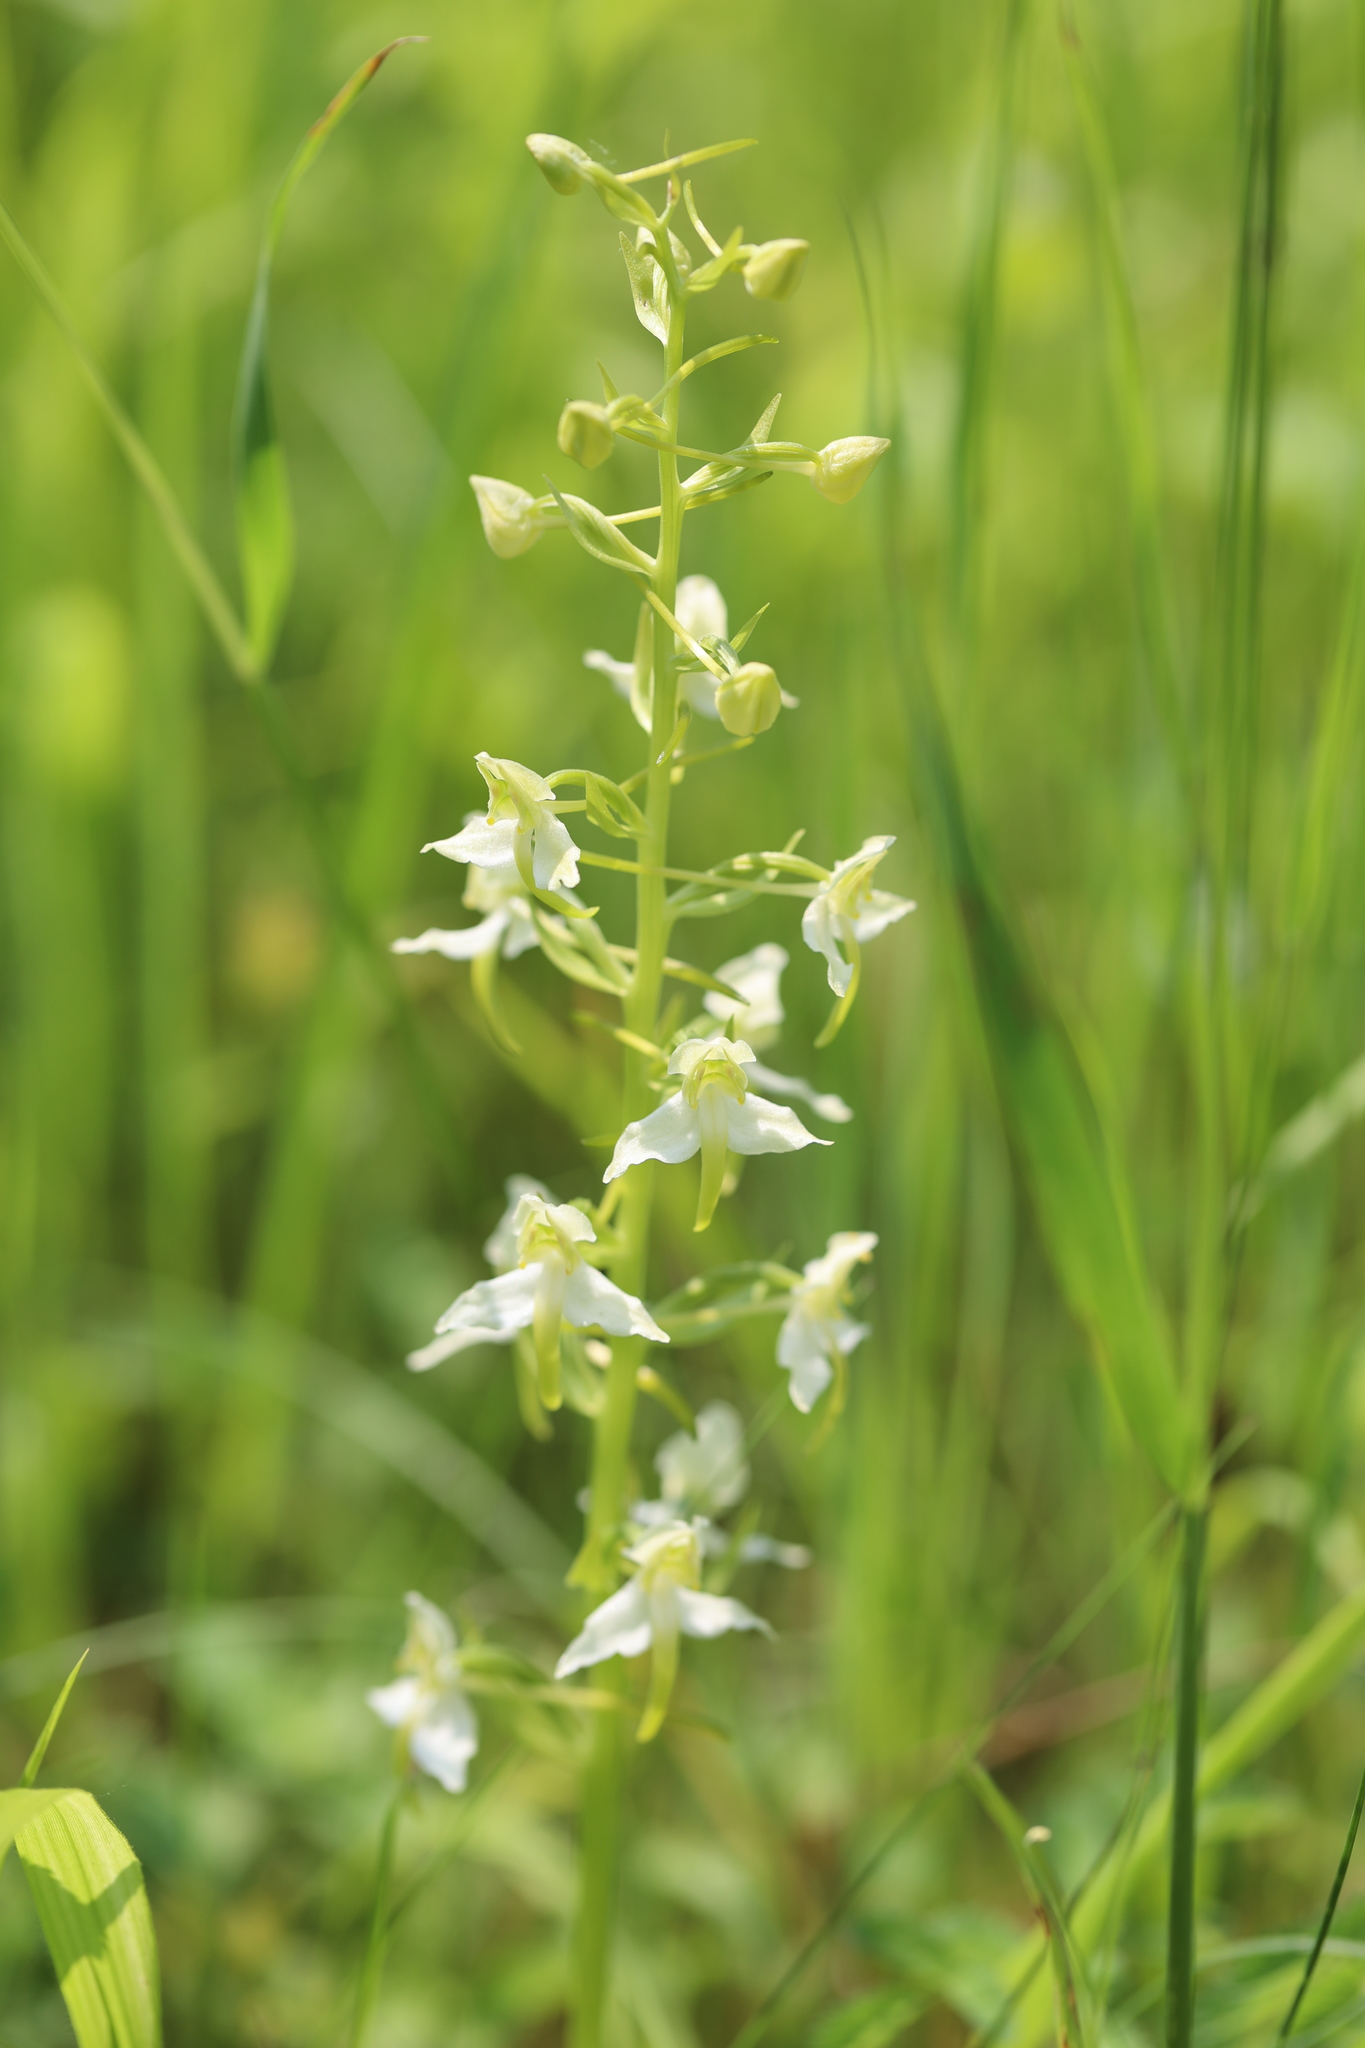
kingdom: Plantae
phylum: Tracheophyta
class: Liliopsida
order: Asparagales
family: Orchidaceae
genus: Platanthera
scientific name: Platanthera chlorantha
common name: Greater butterfly-orchid
